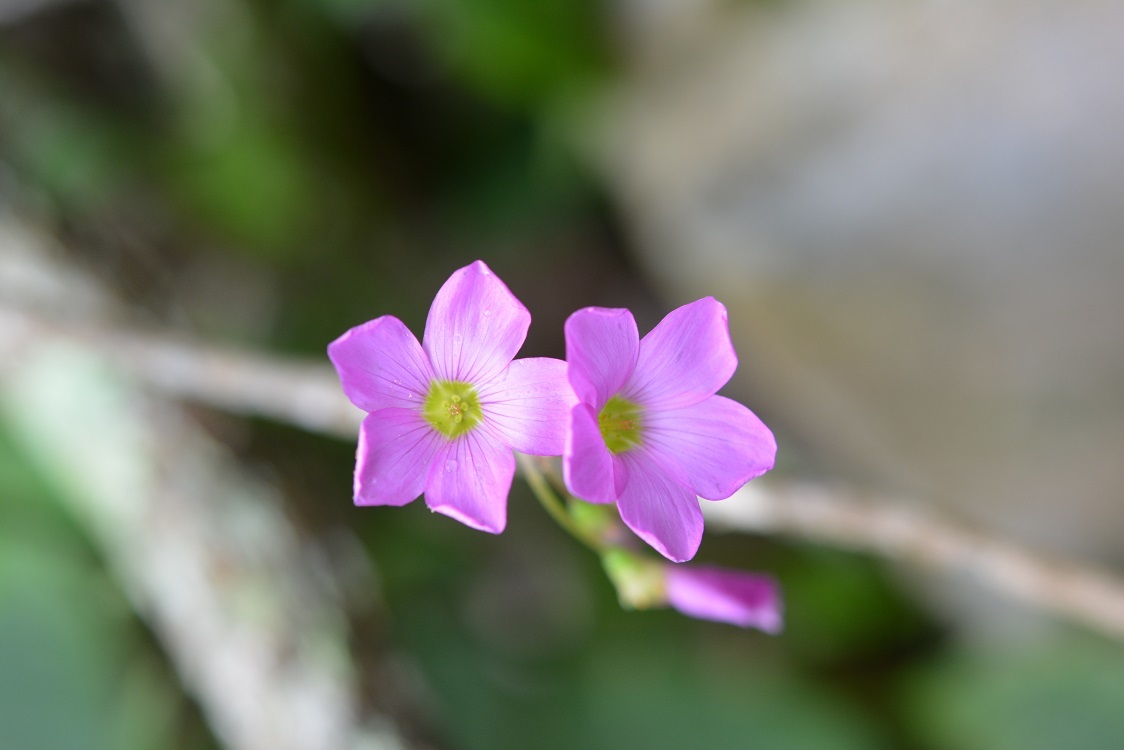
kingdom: Plantae
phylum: Tracheophyta
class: Magnoliopsida
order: Oxalidales
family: Oxalidaceae
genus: Oxalis
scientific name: Oxalis nelsonii
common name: Sorrel
